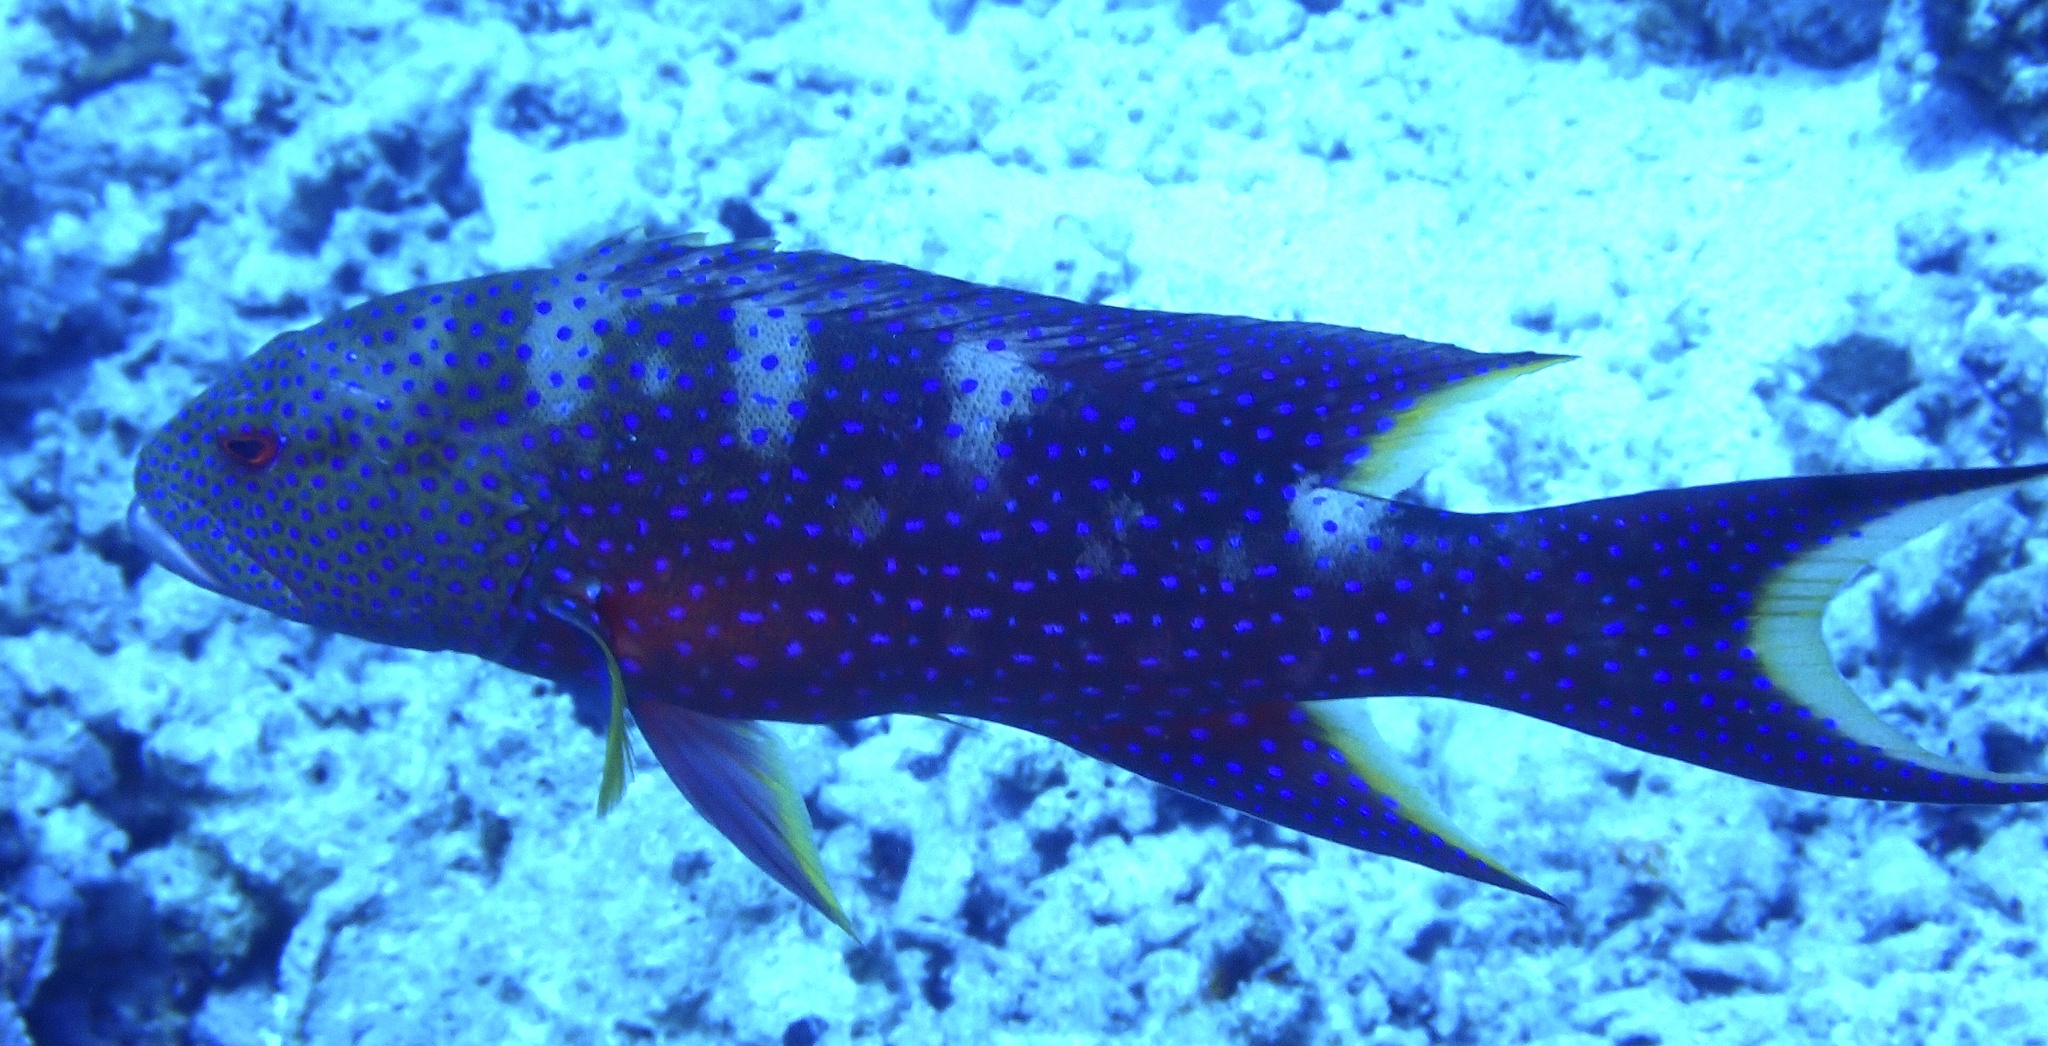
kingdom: Animalia
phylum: Chordata
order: Perciformes
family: Serranidae
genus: Variola
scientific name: Variola louti
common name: Yellow-edged lyretail
